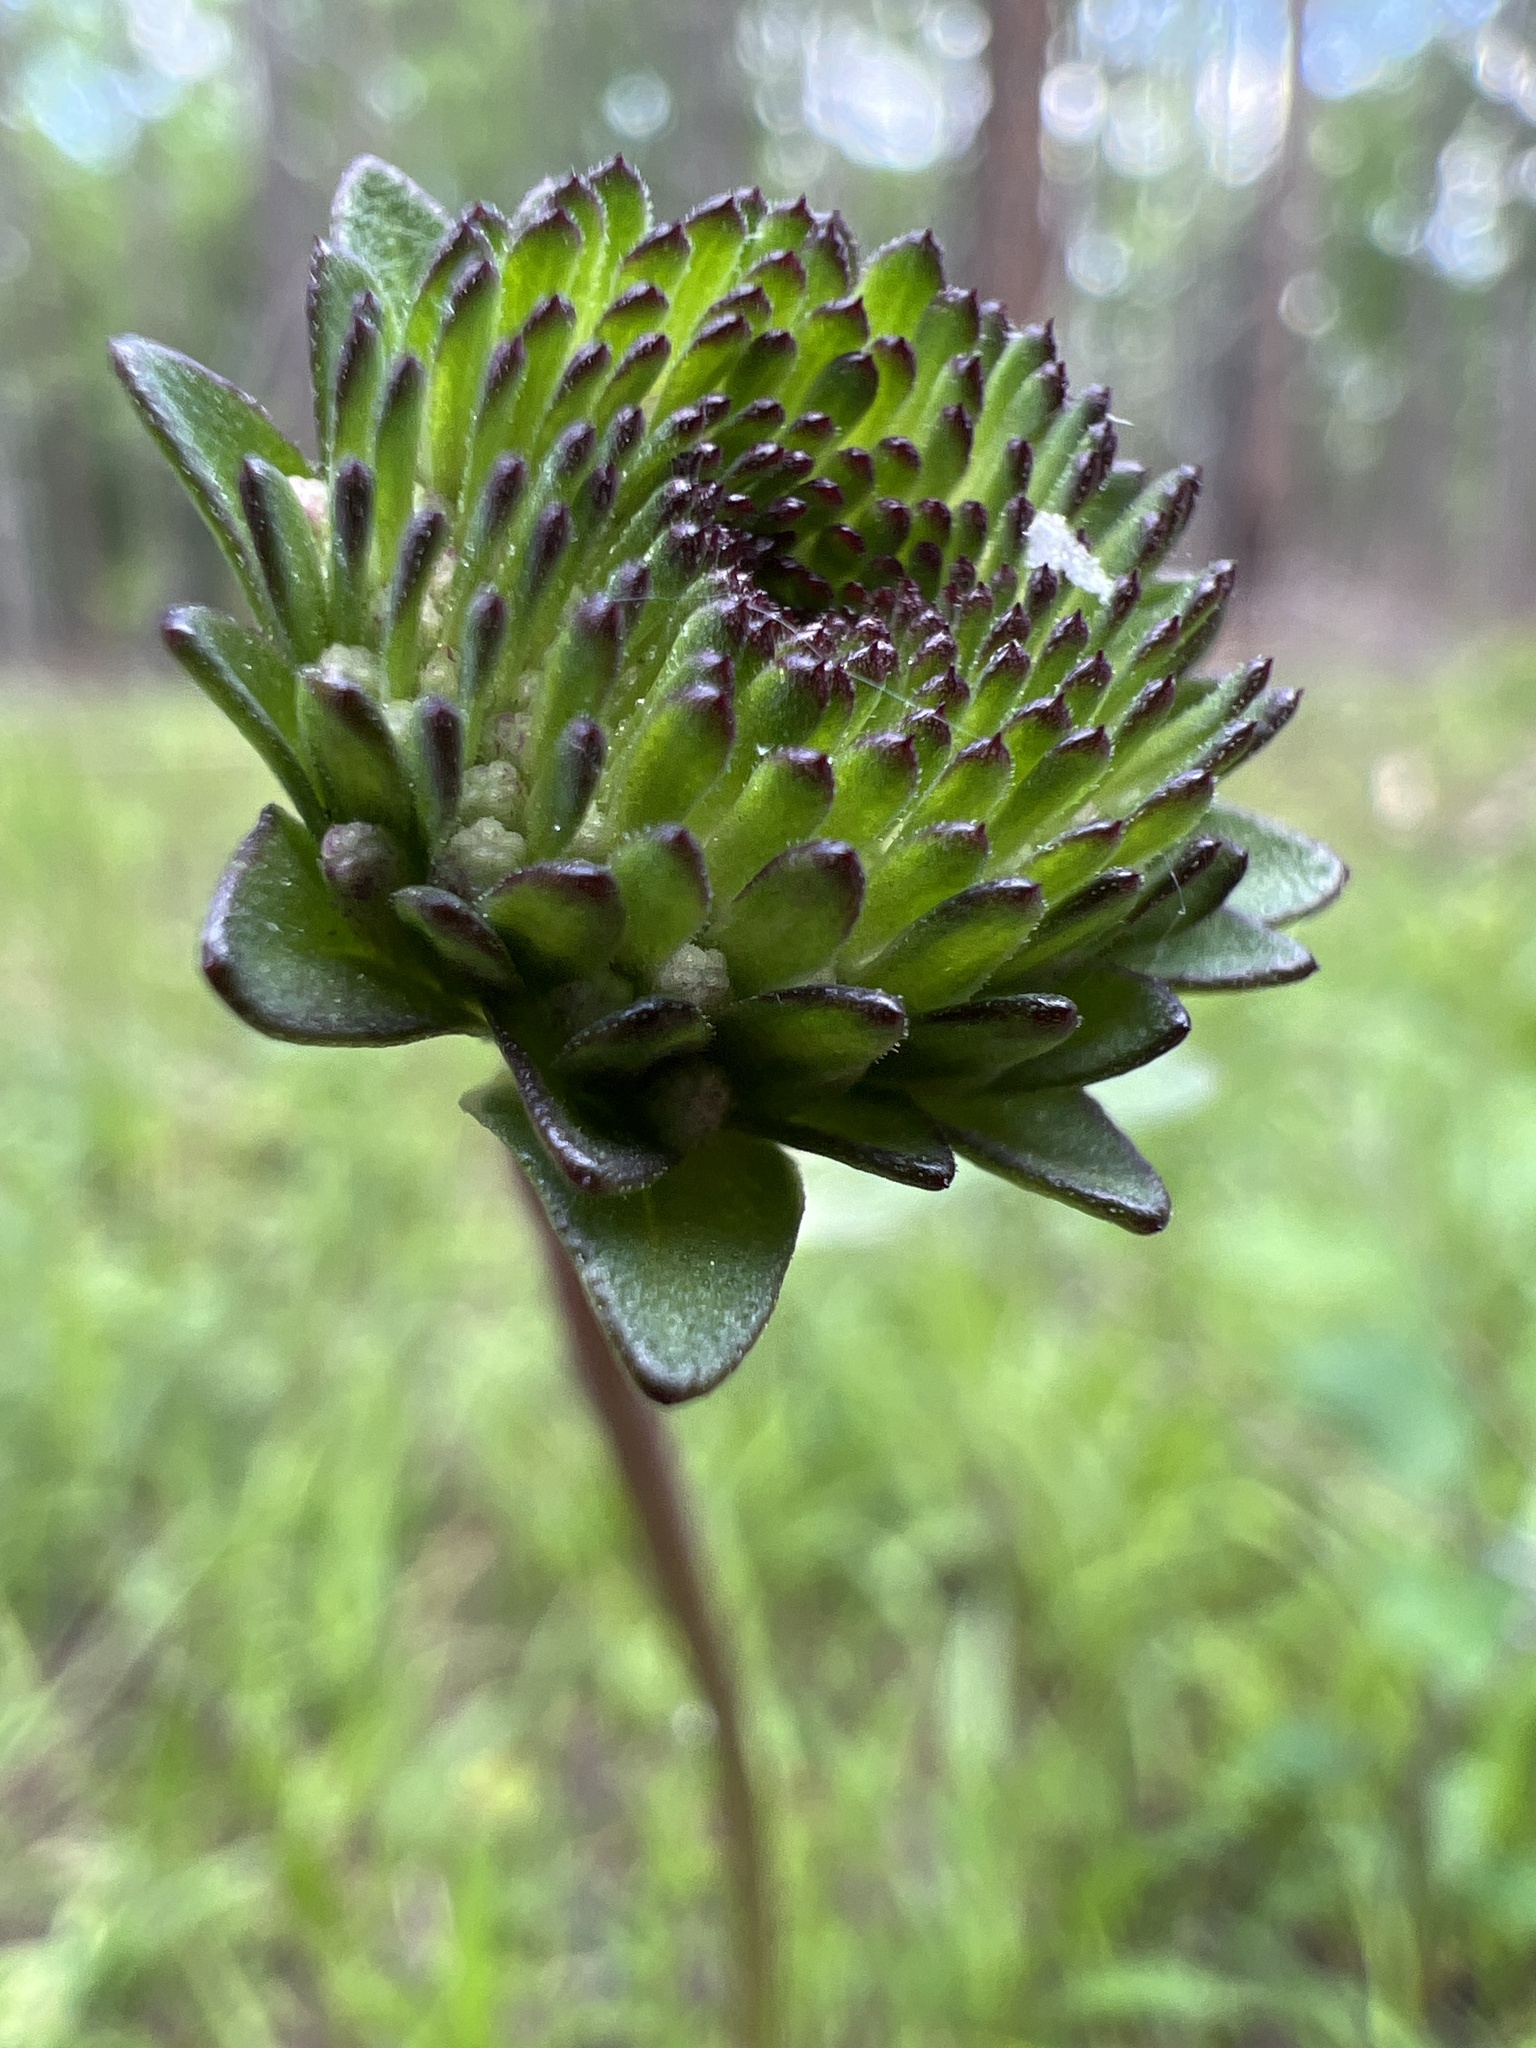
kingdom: Plantae
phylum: Tracheophyta
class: Magnoliopsida
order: Asterales
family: Asteraceae
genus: Marshallia
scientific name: Marshallia legrandii
